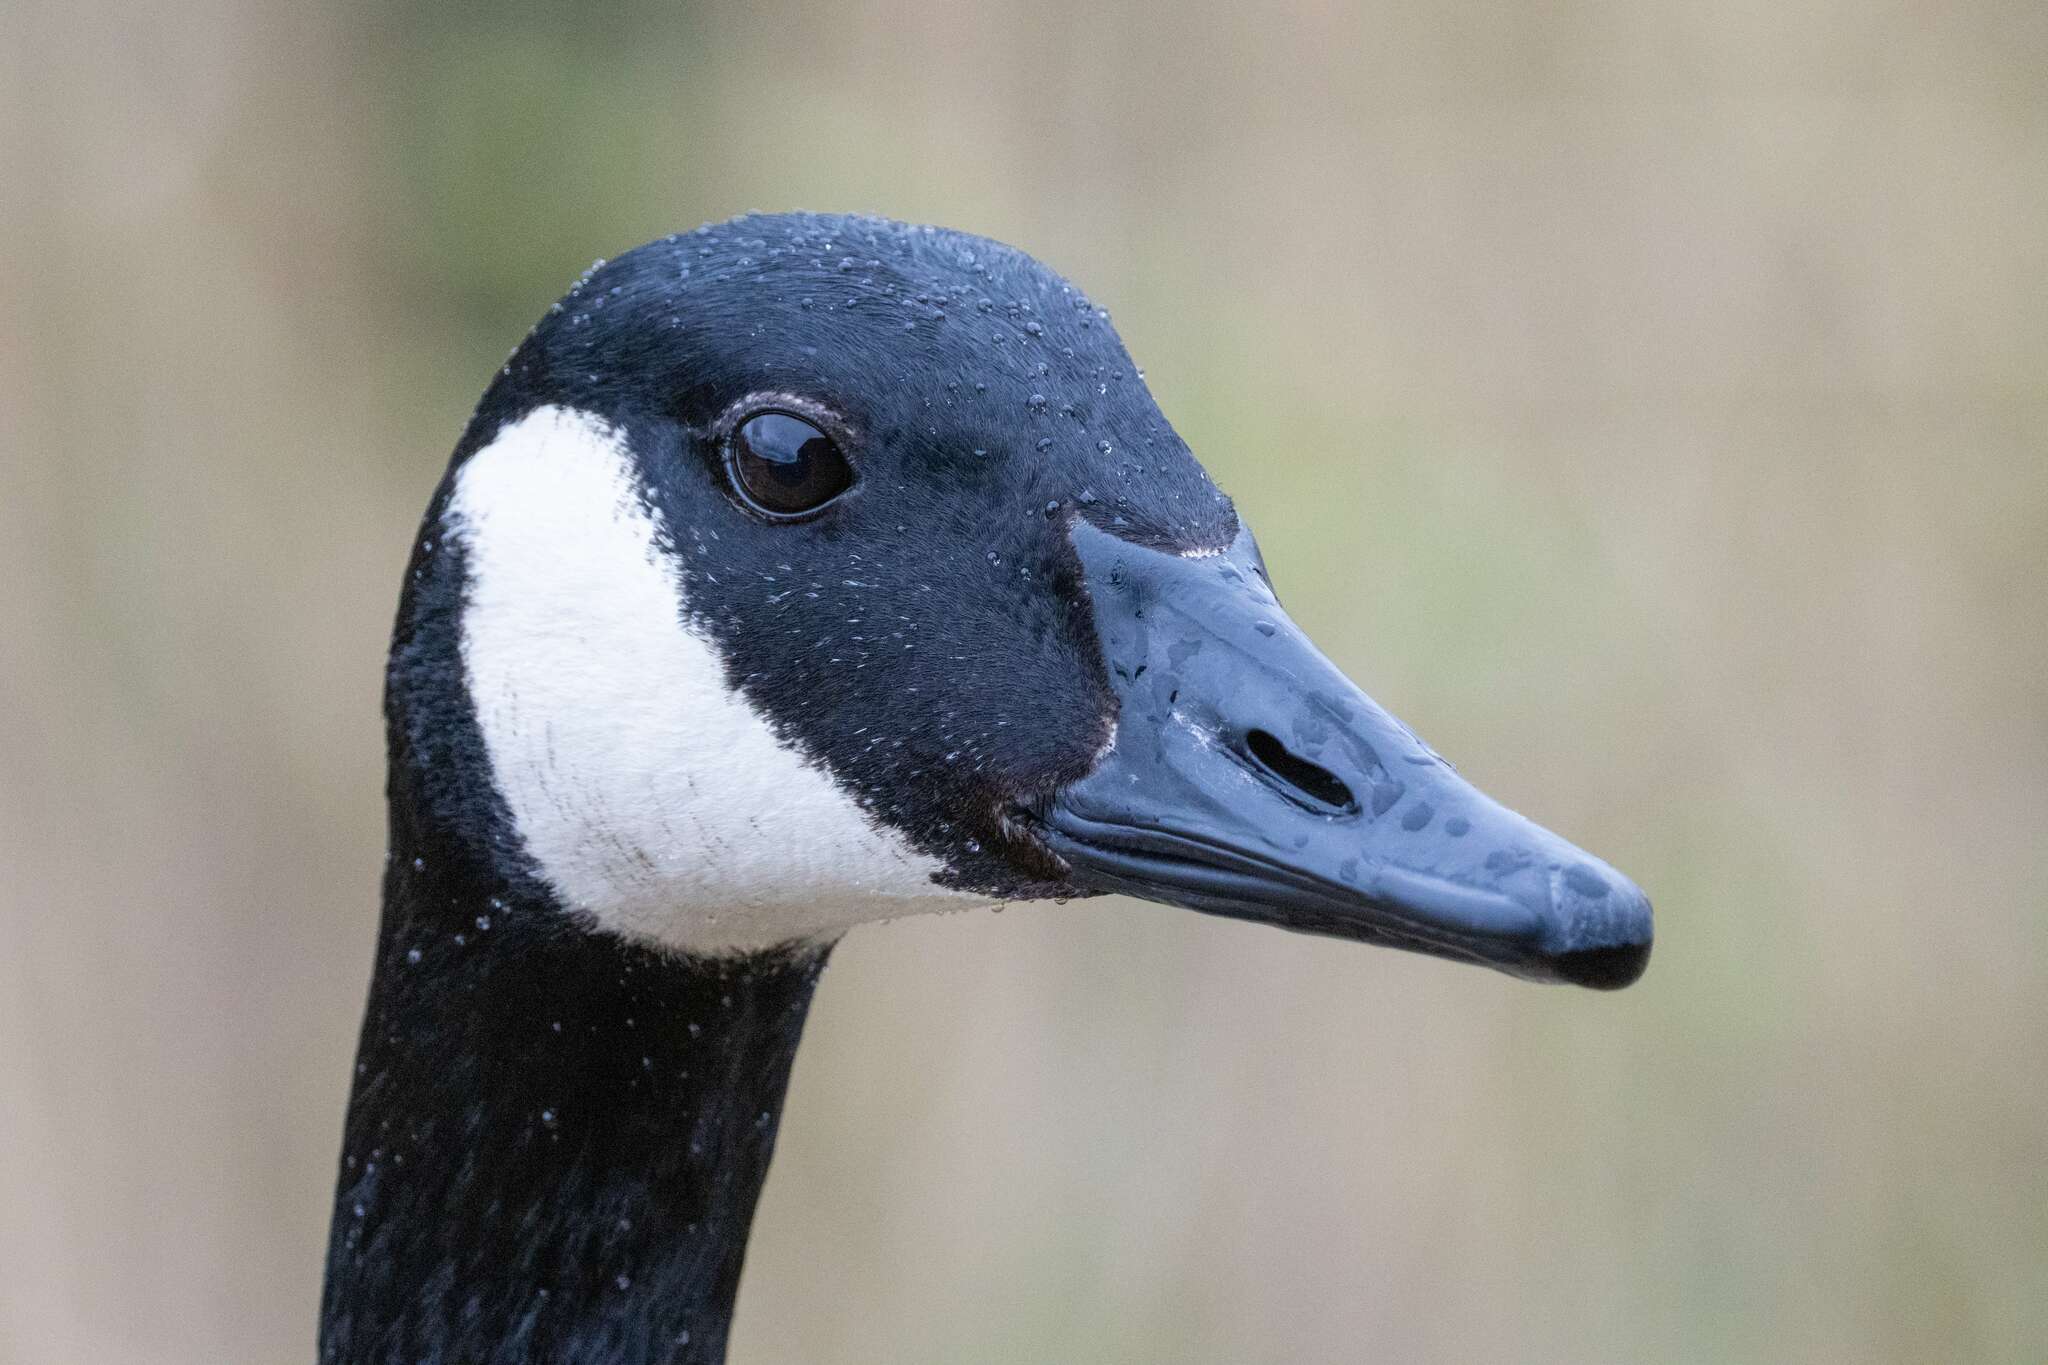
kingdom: Animalia
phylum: Chordata
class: Aves
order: Anseriformes
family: Anatidae
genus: Branta
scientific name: Branta canadensis
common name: Canada goose
